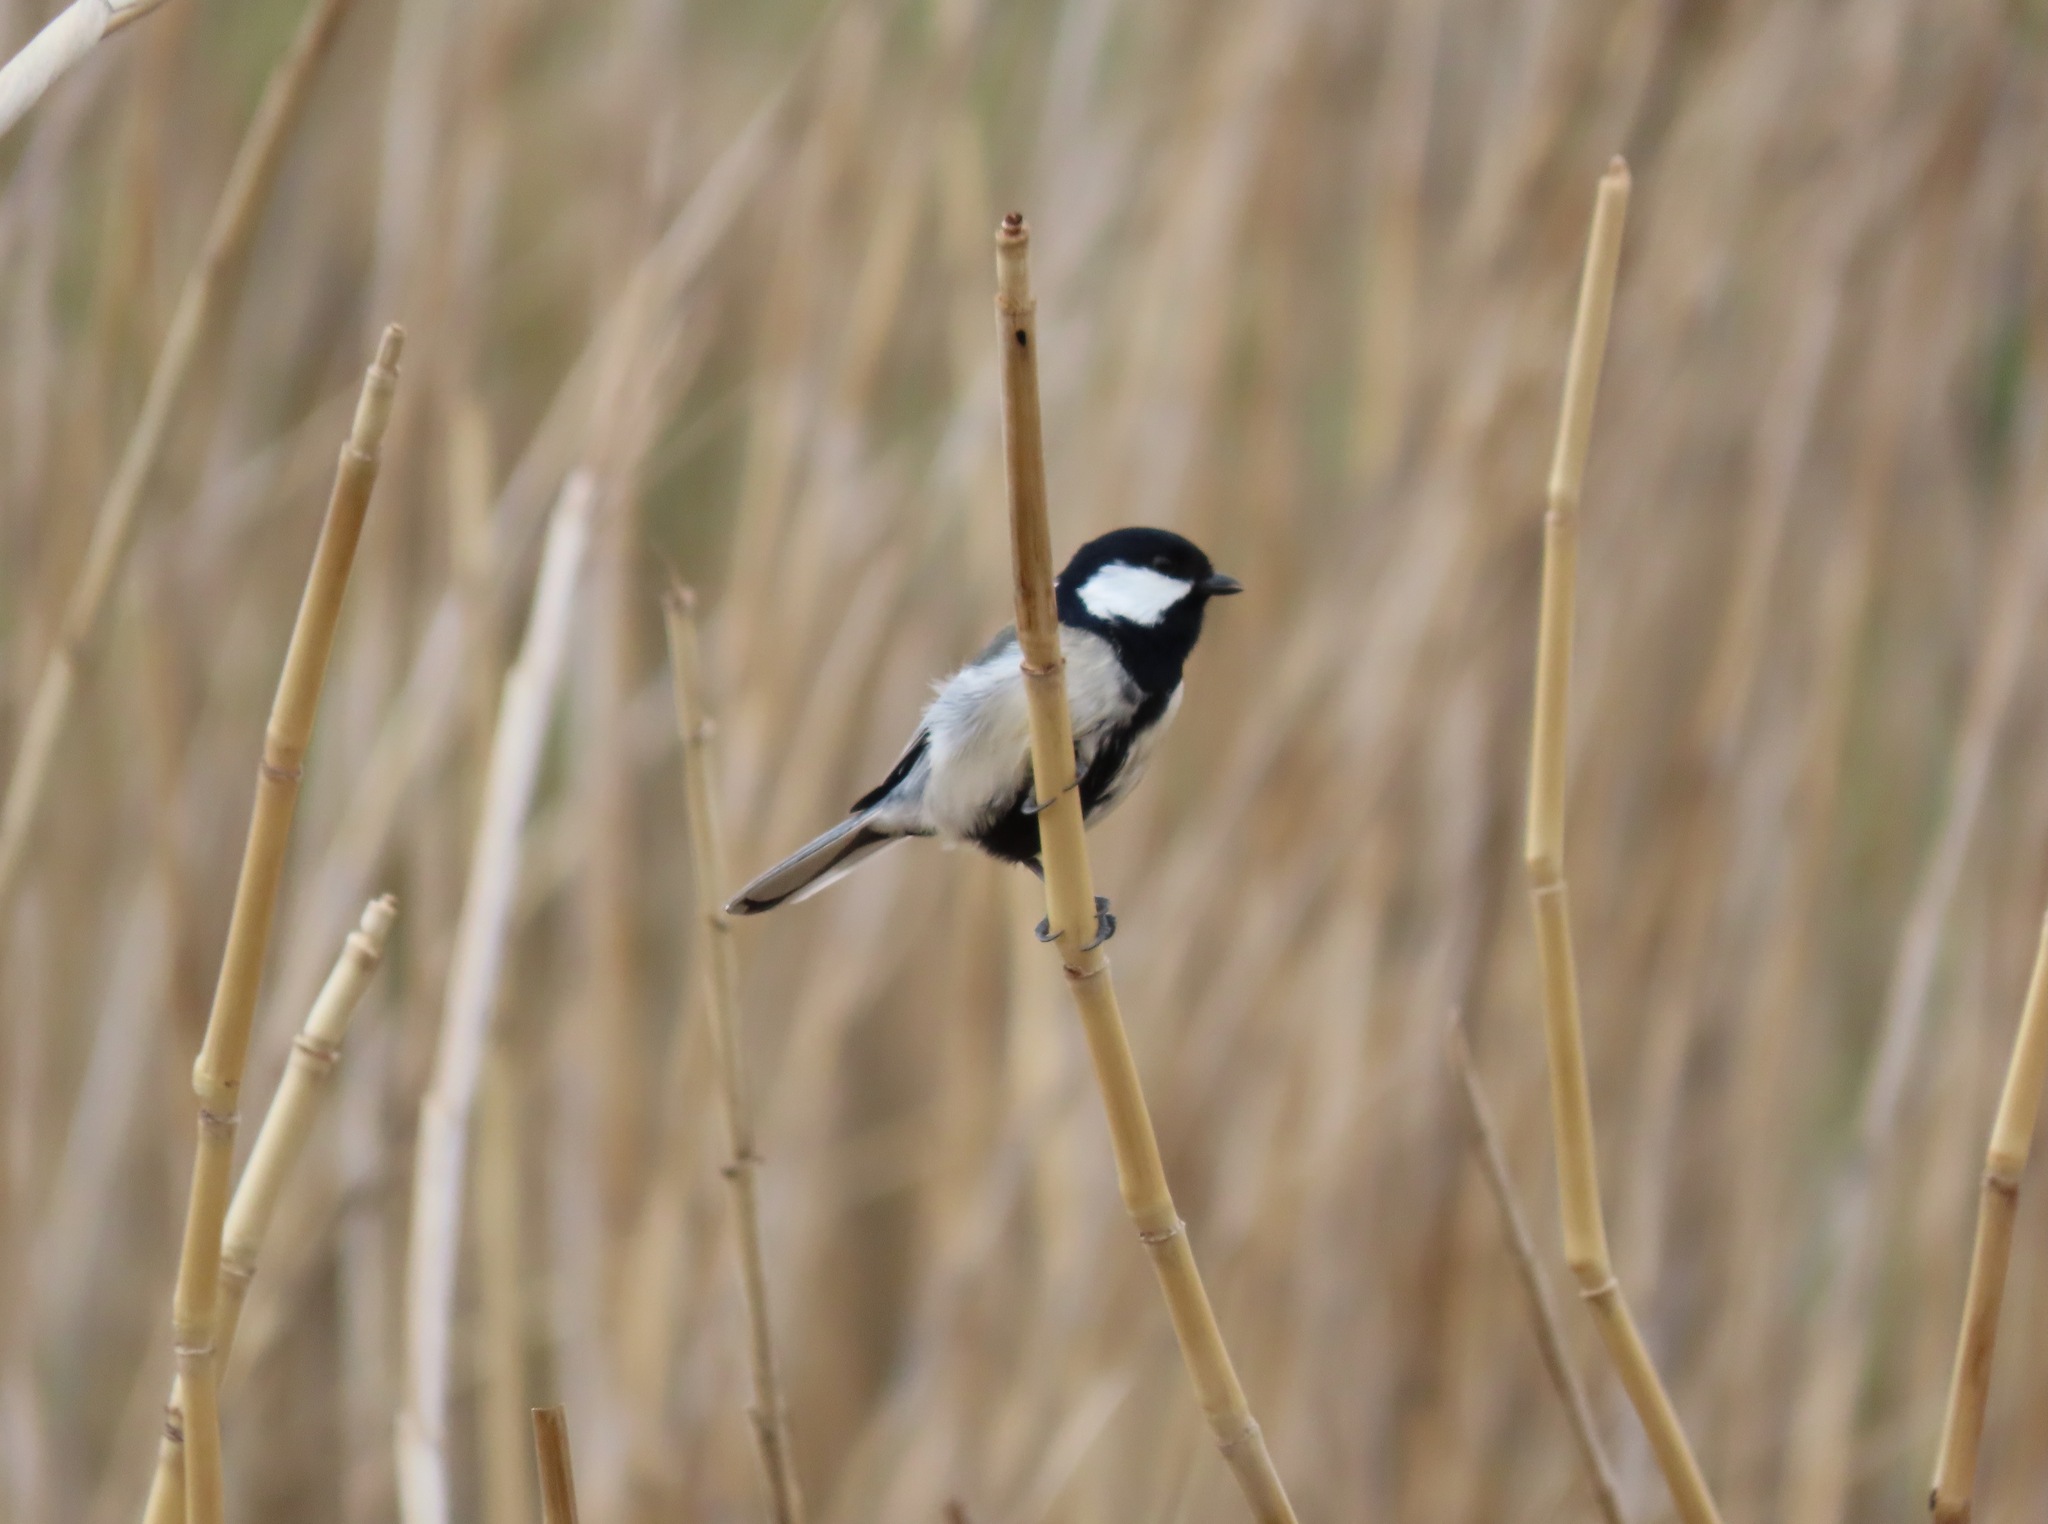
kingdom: Animalia
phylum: Chordata
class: Aves
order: Passeriformes
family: Paridae
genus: Parus
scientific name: Parus minor
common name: Japanese tit
